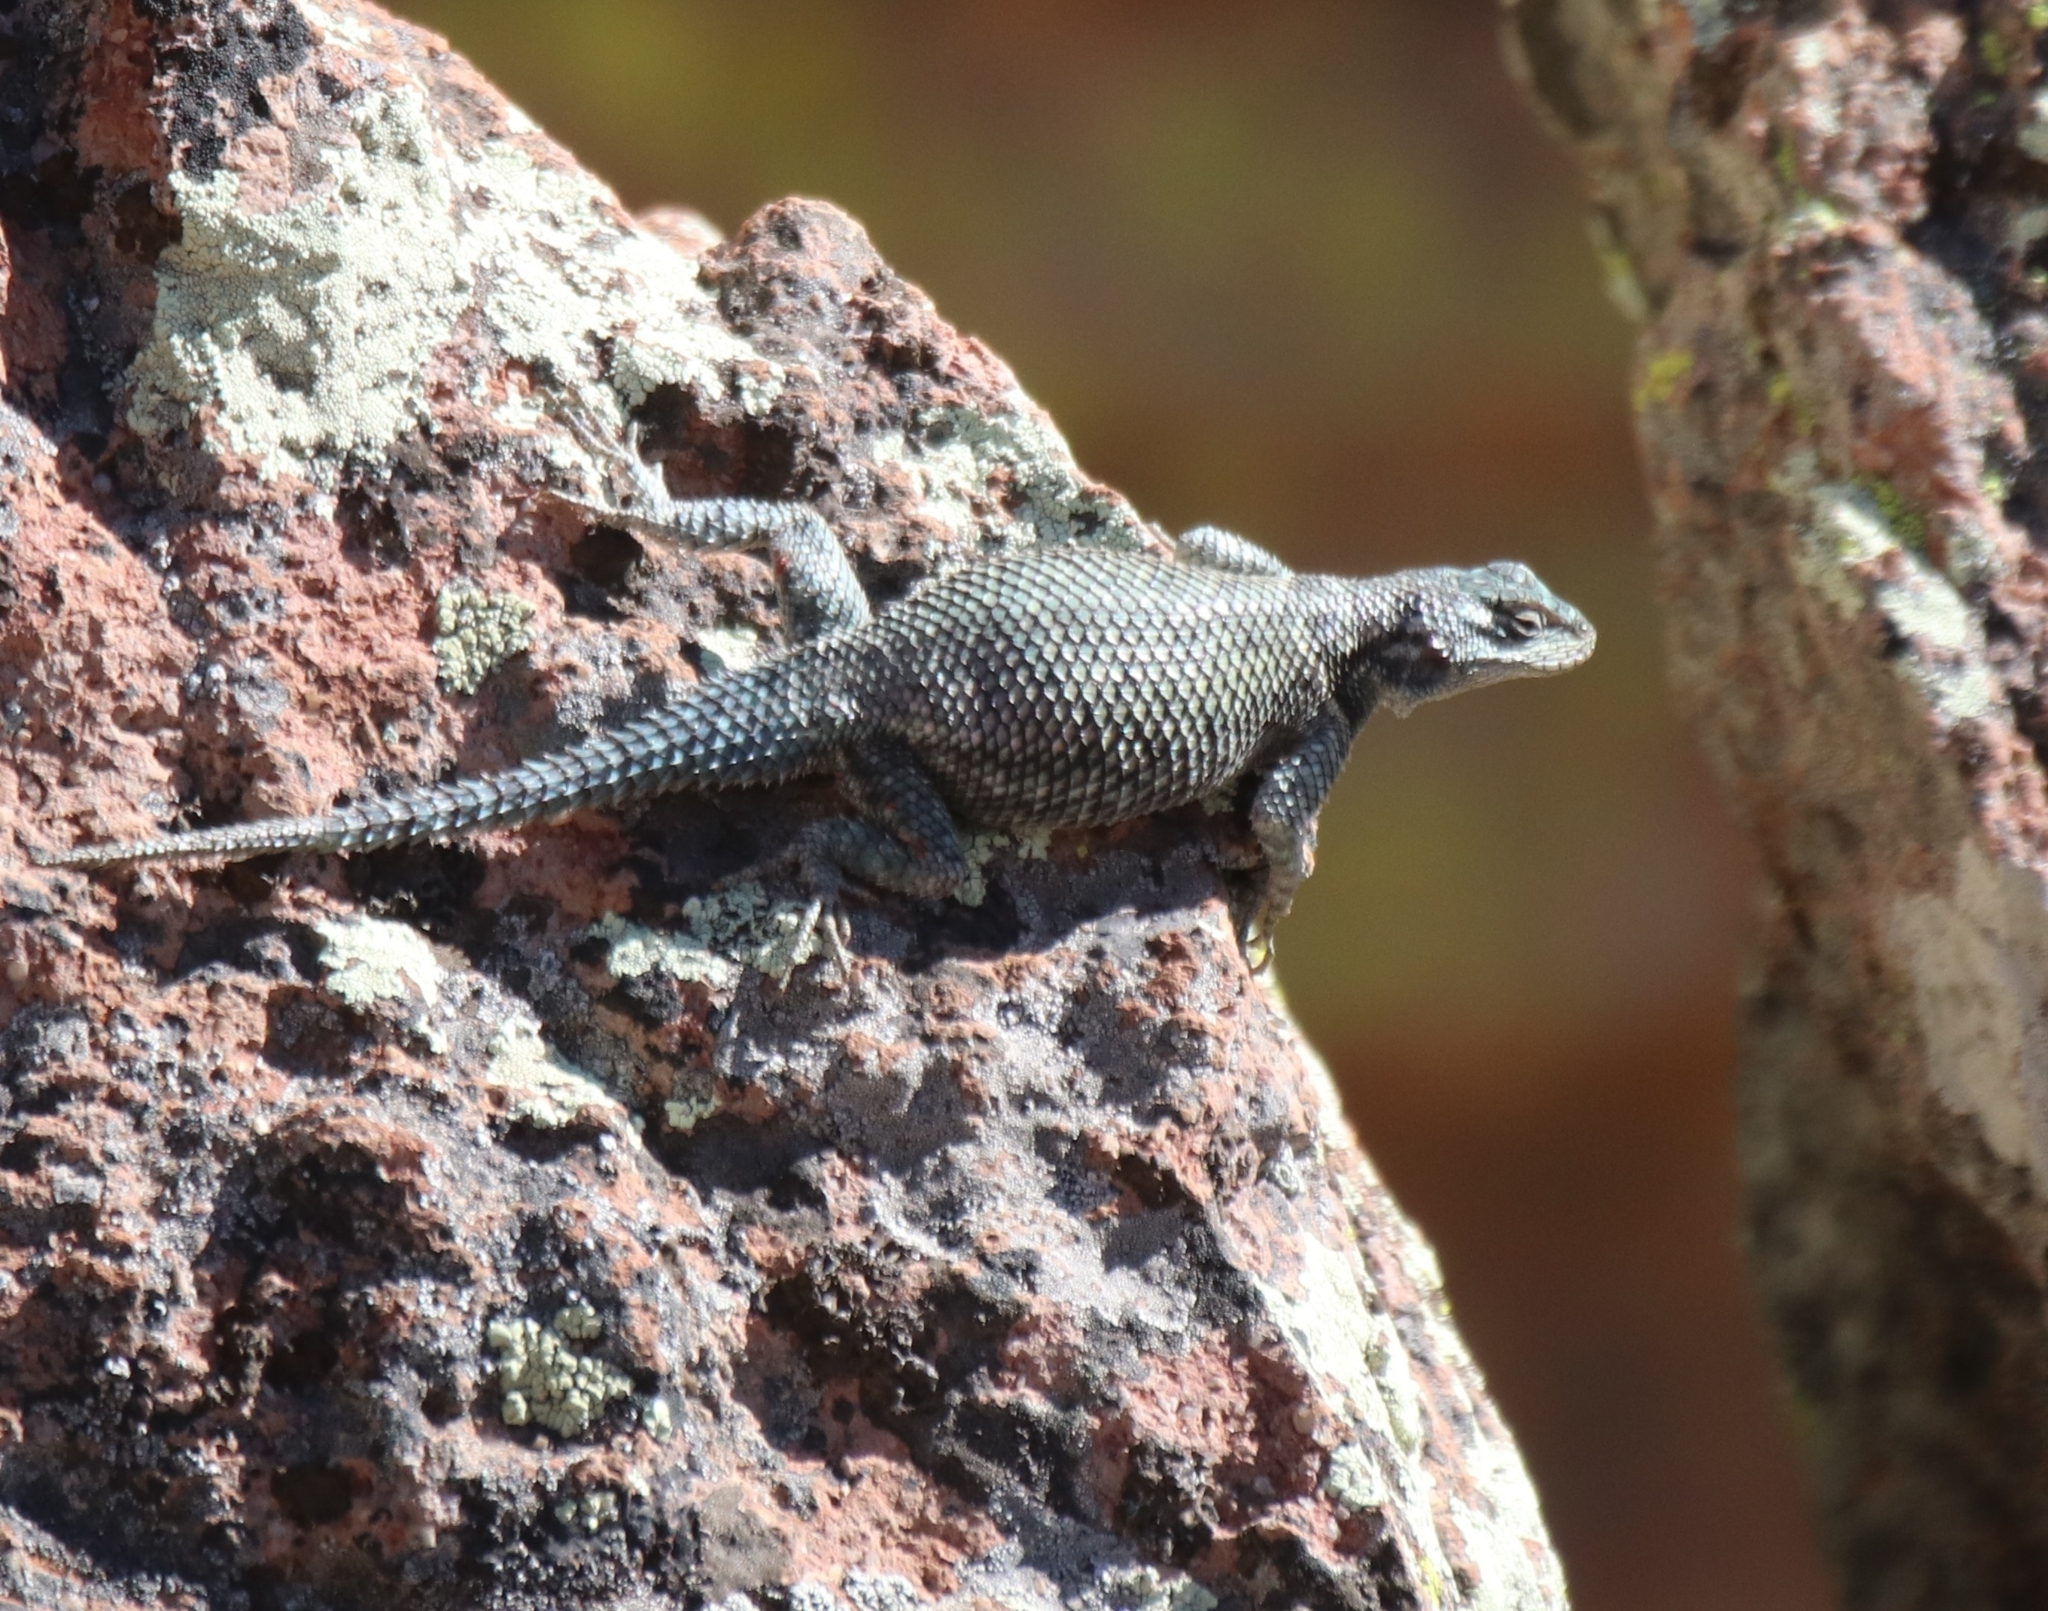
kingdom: Animalia
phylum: Chordata
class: Squamata
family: Phrynosomatidae
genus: Sceloporus
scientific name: Sceloporus jarrovii
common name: Yarrow's spiny lizard
